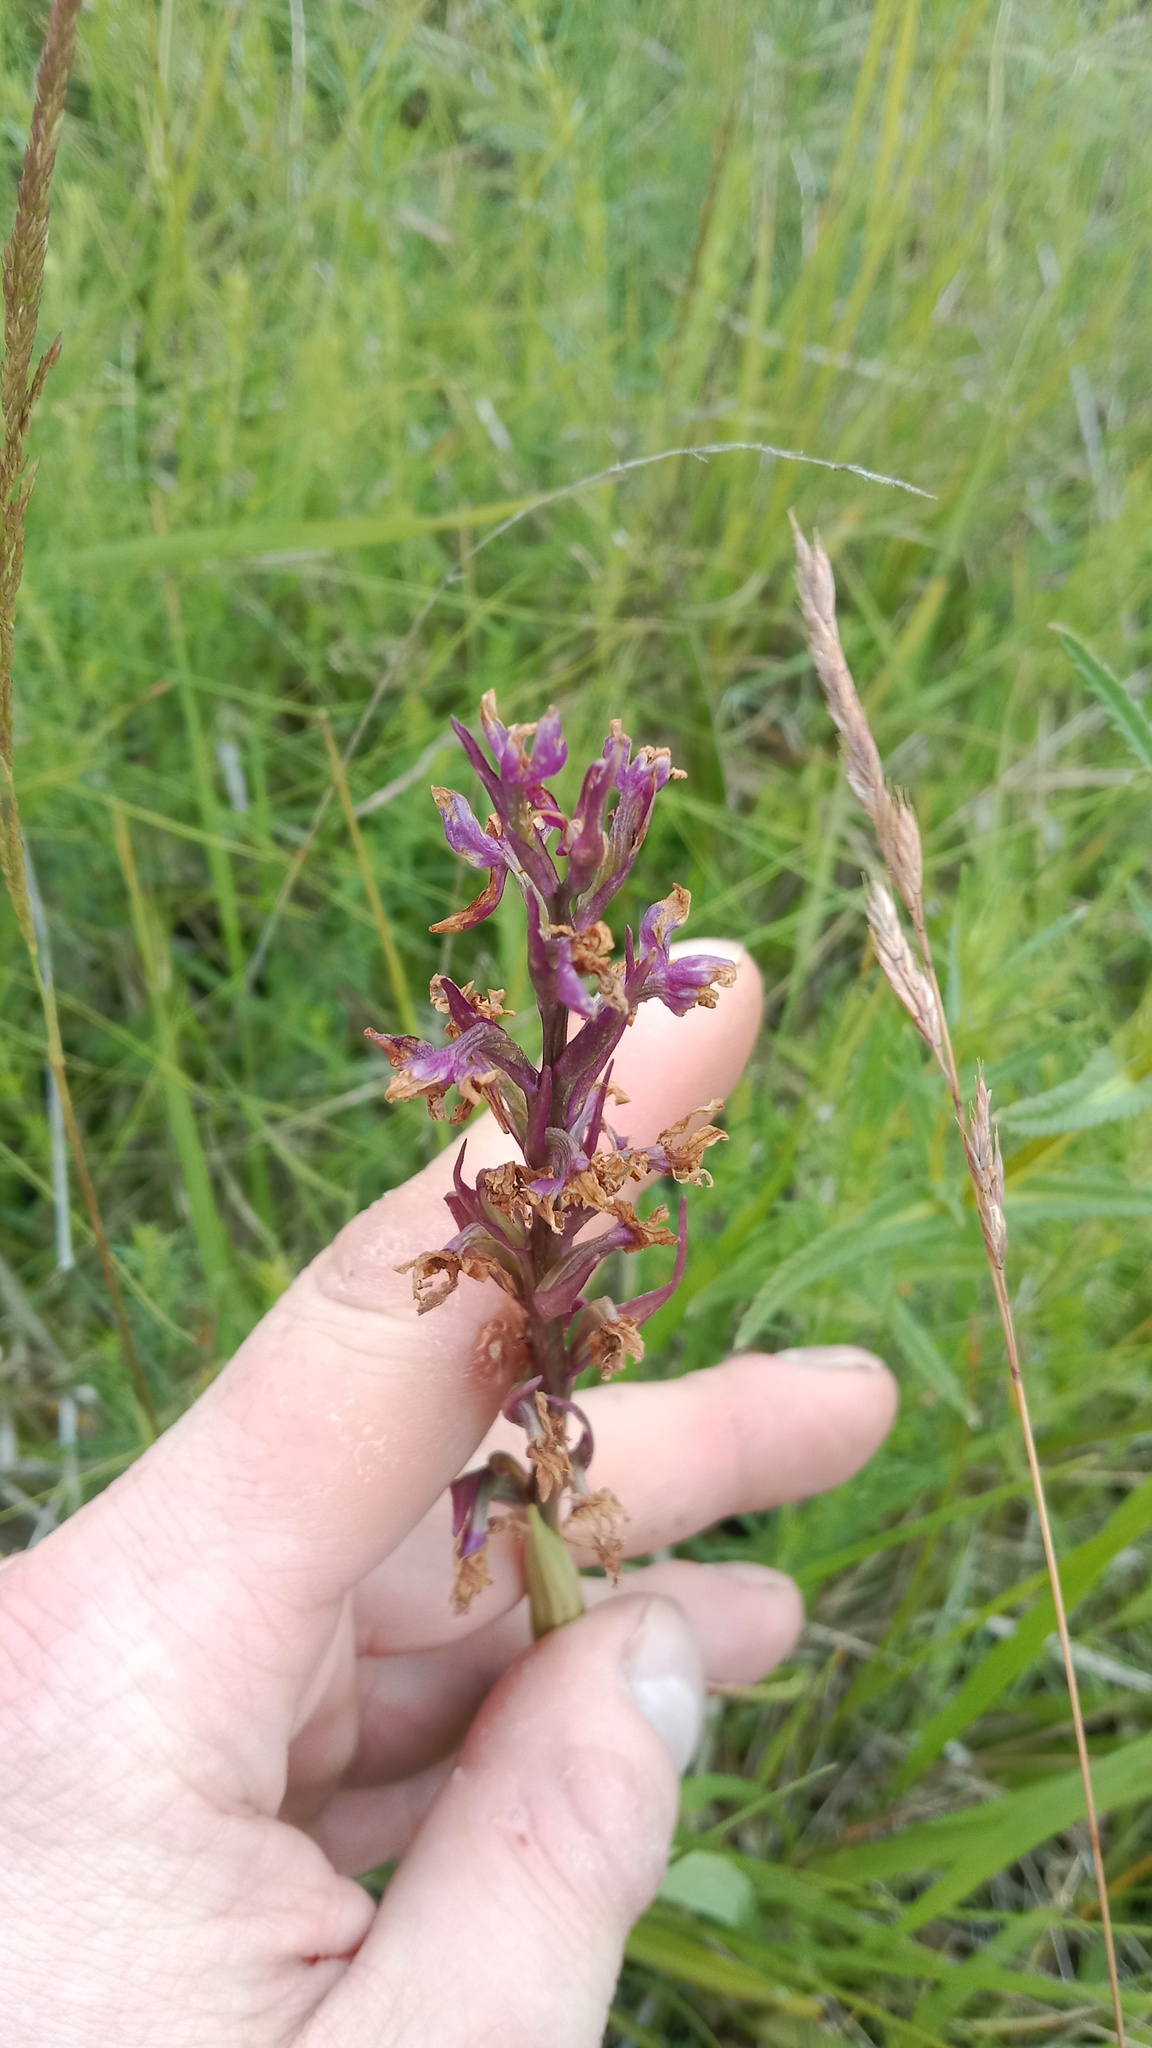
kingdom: Plantae
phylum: Tracheophyta
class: Liliopsida
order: Asparagales
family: Orchidaceae
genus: Anacamptis
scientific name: Anacamptis palustris
